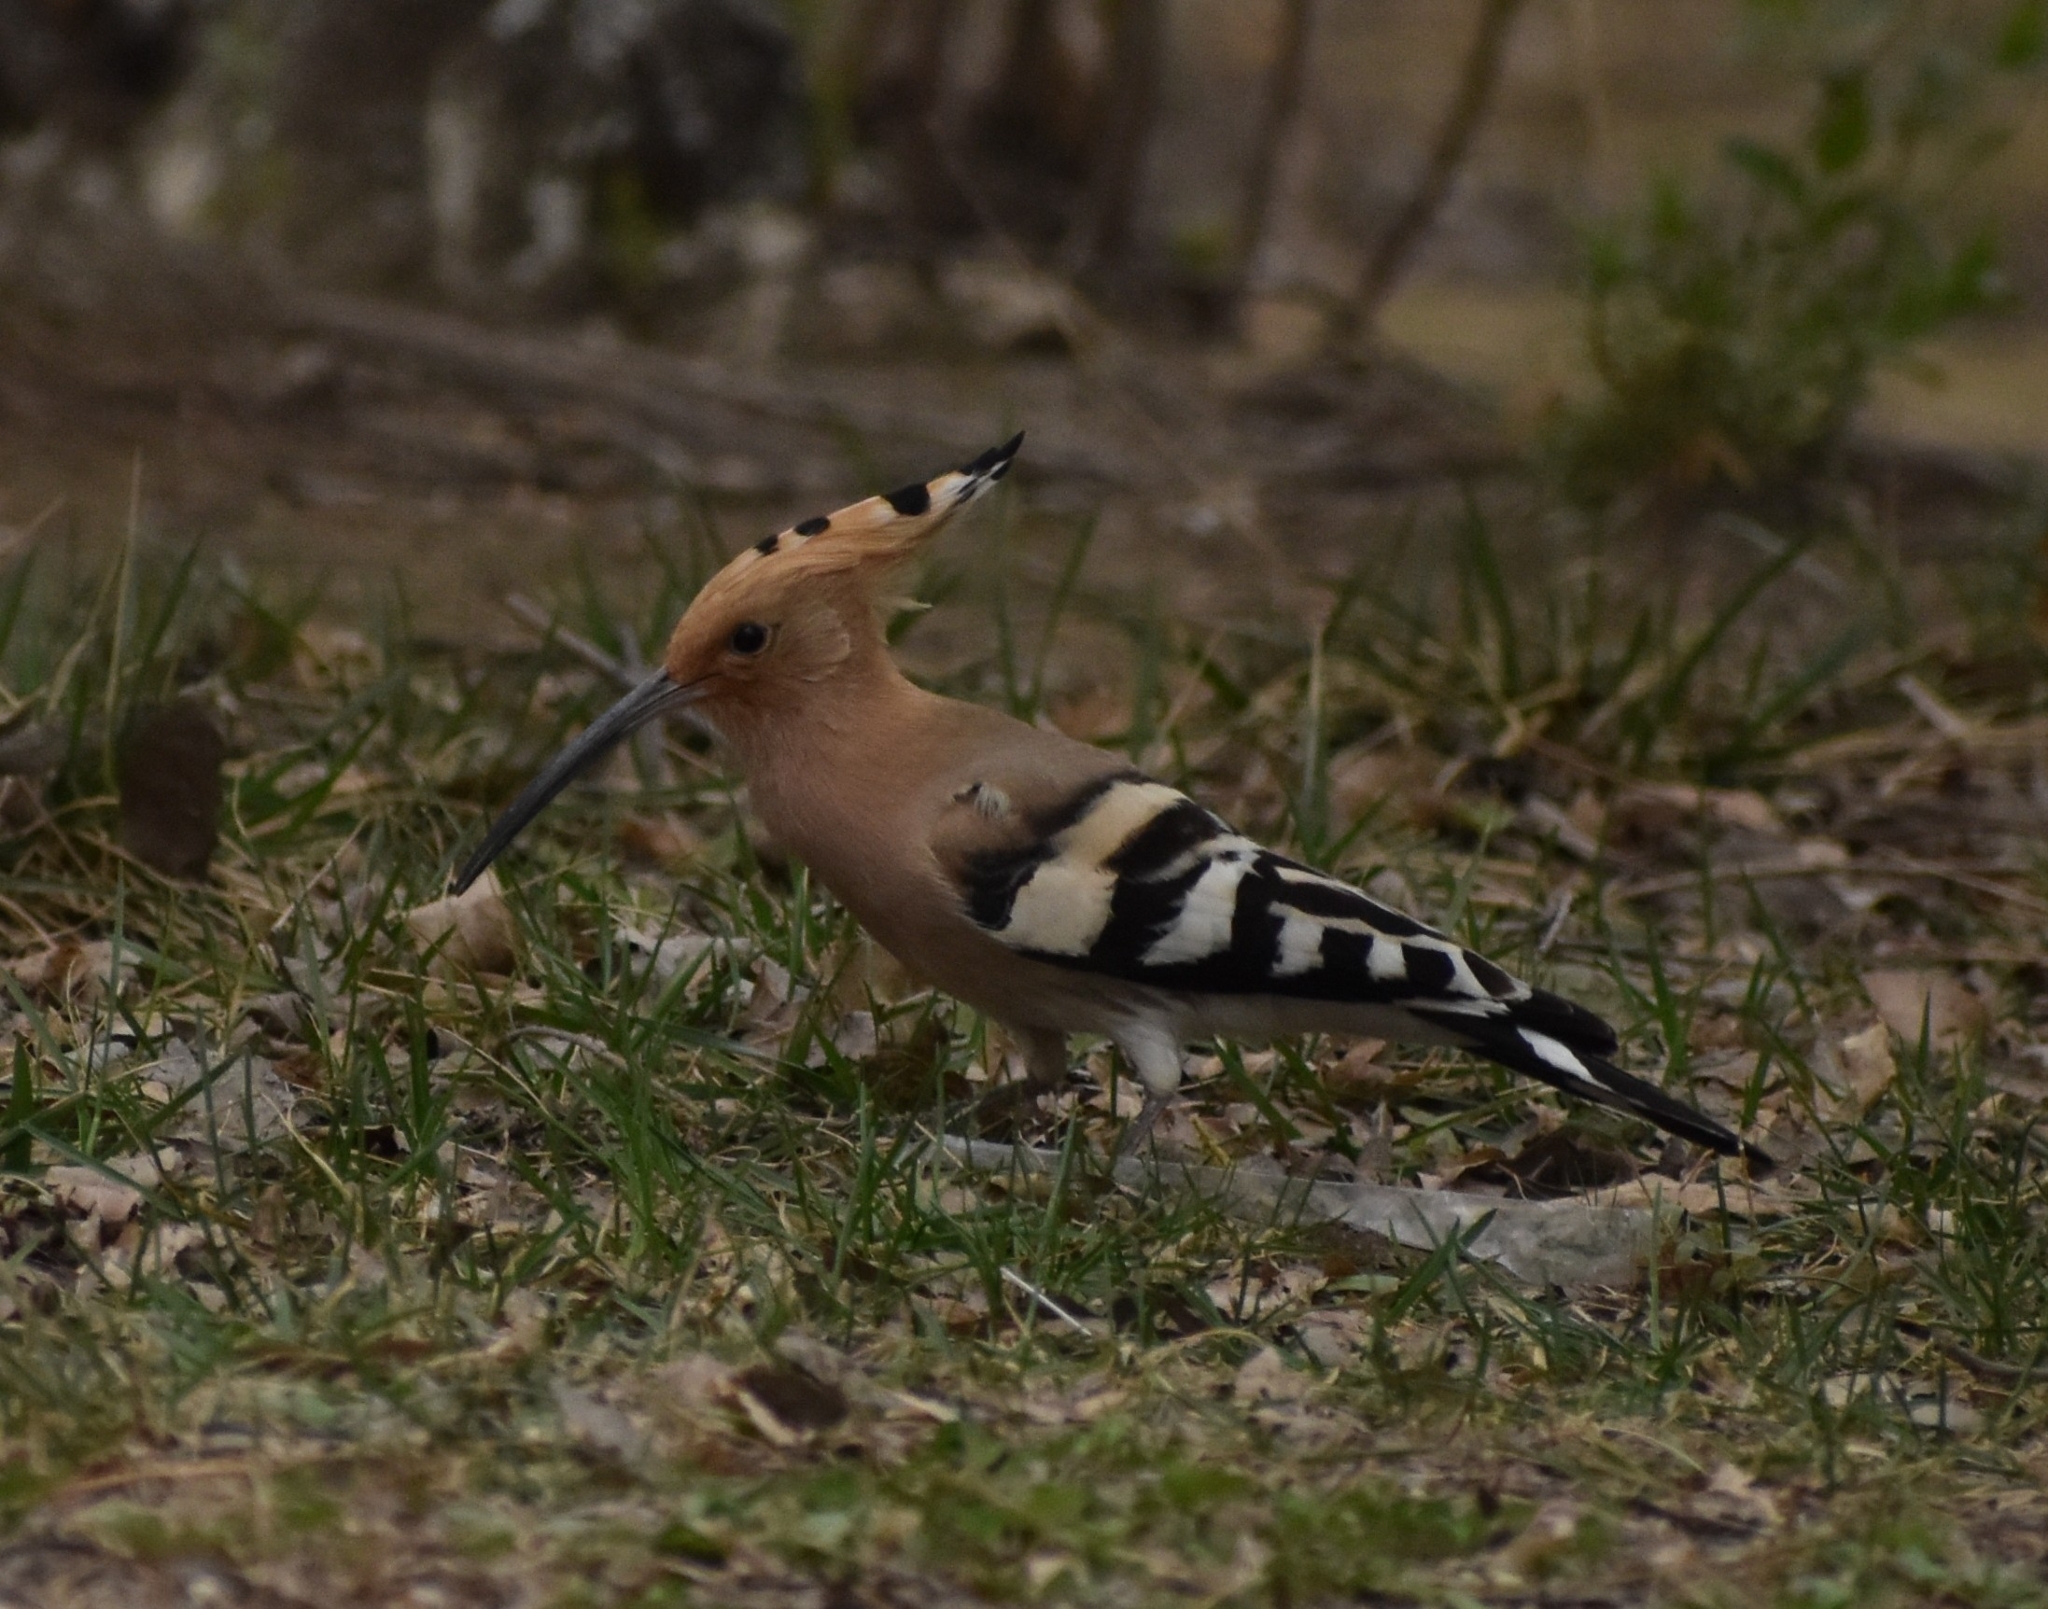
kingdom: Animalia
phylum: Chordata
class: Aves
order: Bucerotiformes
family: Upupidae
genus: Upupa
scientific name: Upupa epops
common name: Eurasian hoopoe
